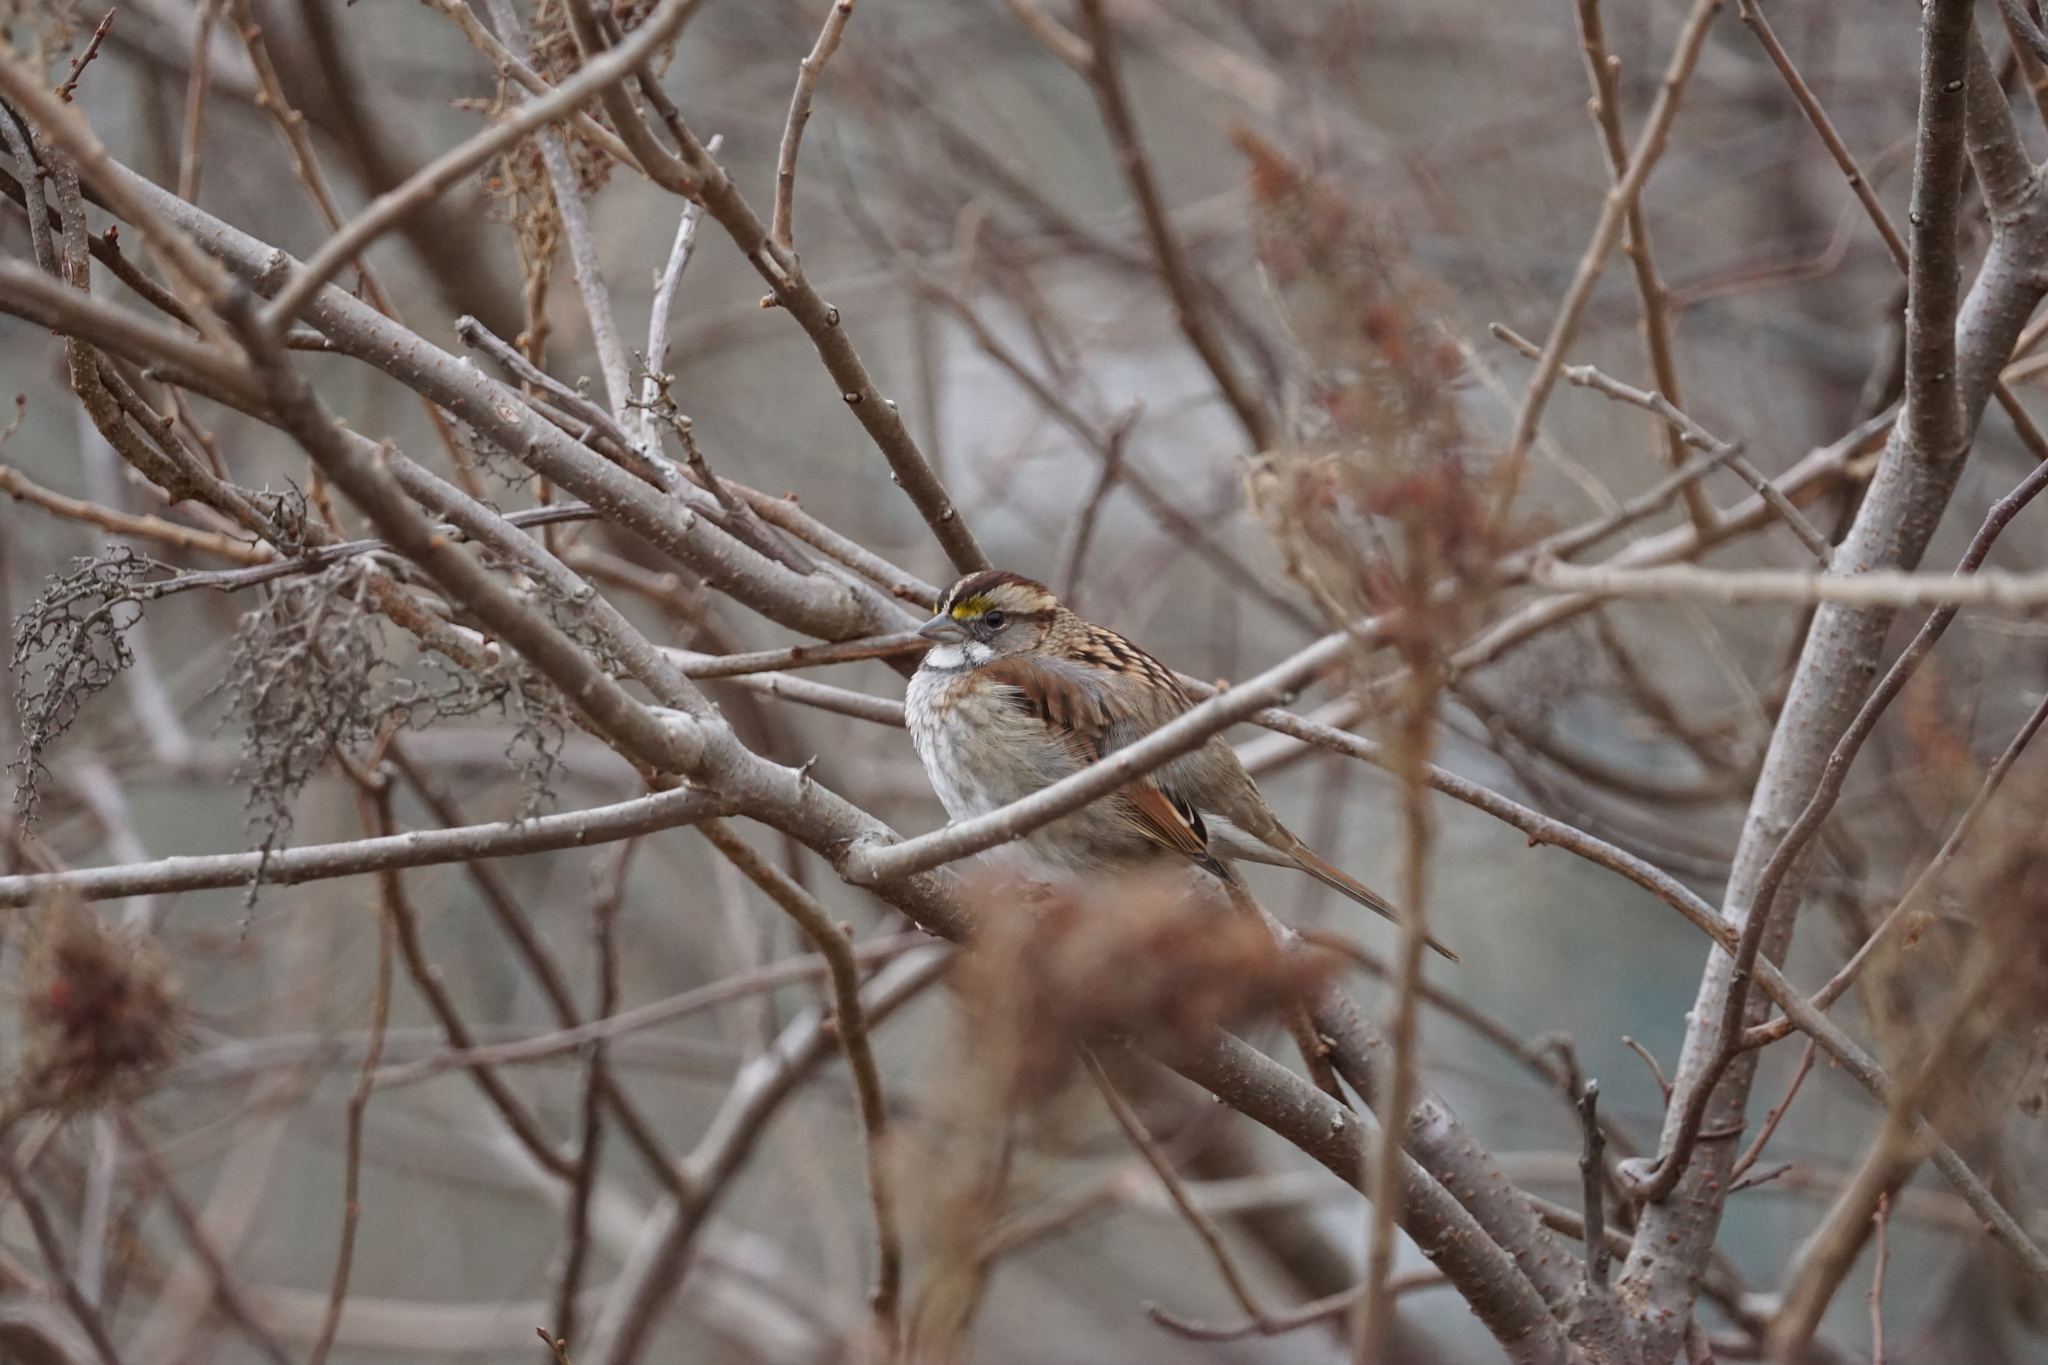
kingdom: Animalia
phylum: Chordata
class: Aves
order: Passeriformes
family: Passerellidae
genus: Zonotrichia
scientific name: Zonotrichia albicollis
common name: White-throated sparrow
